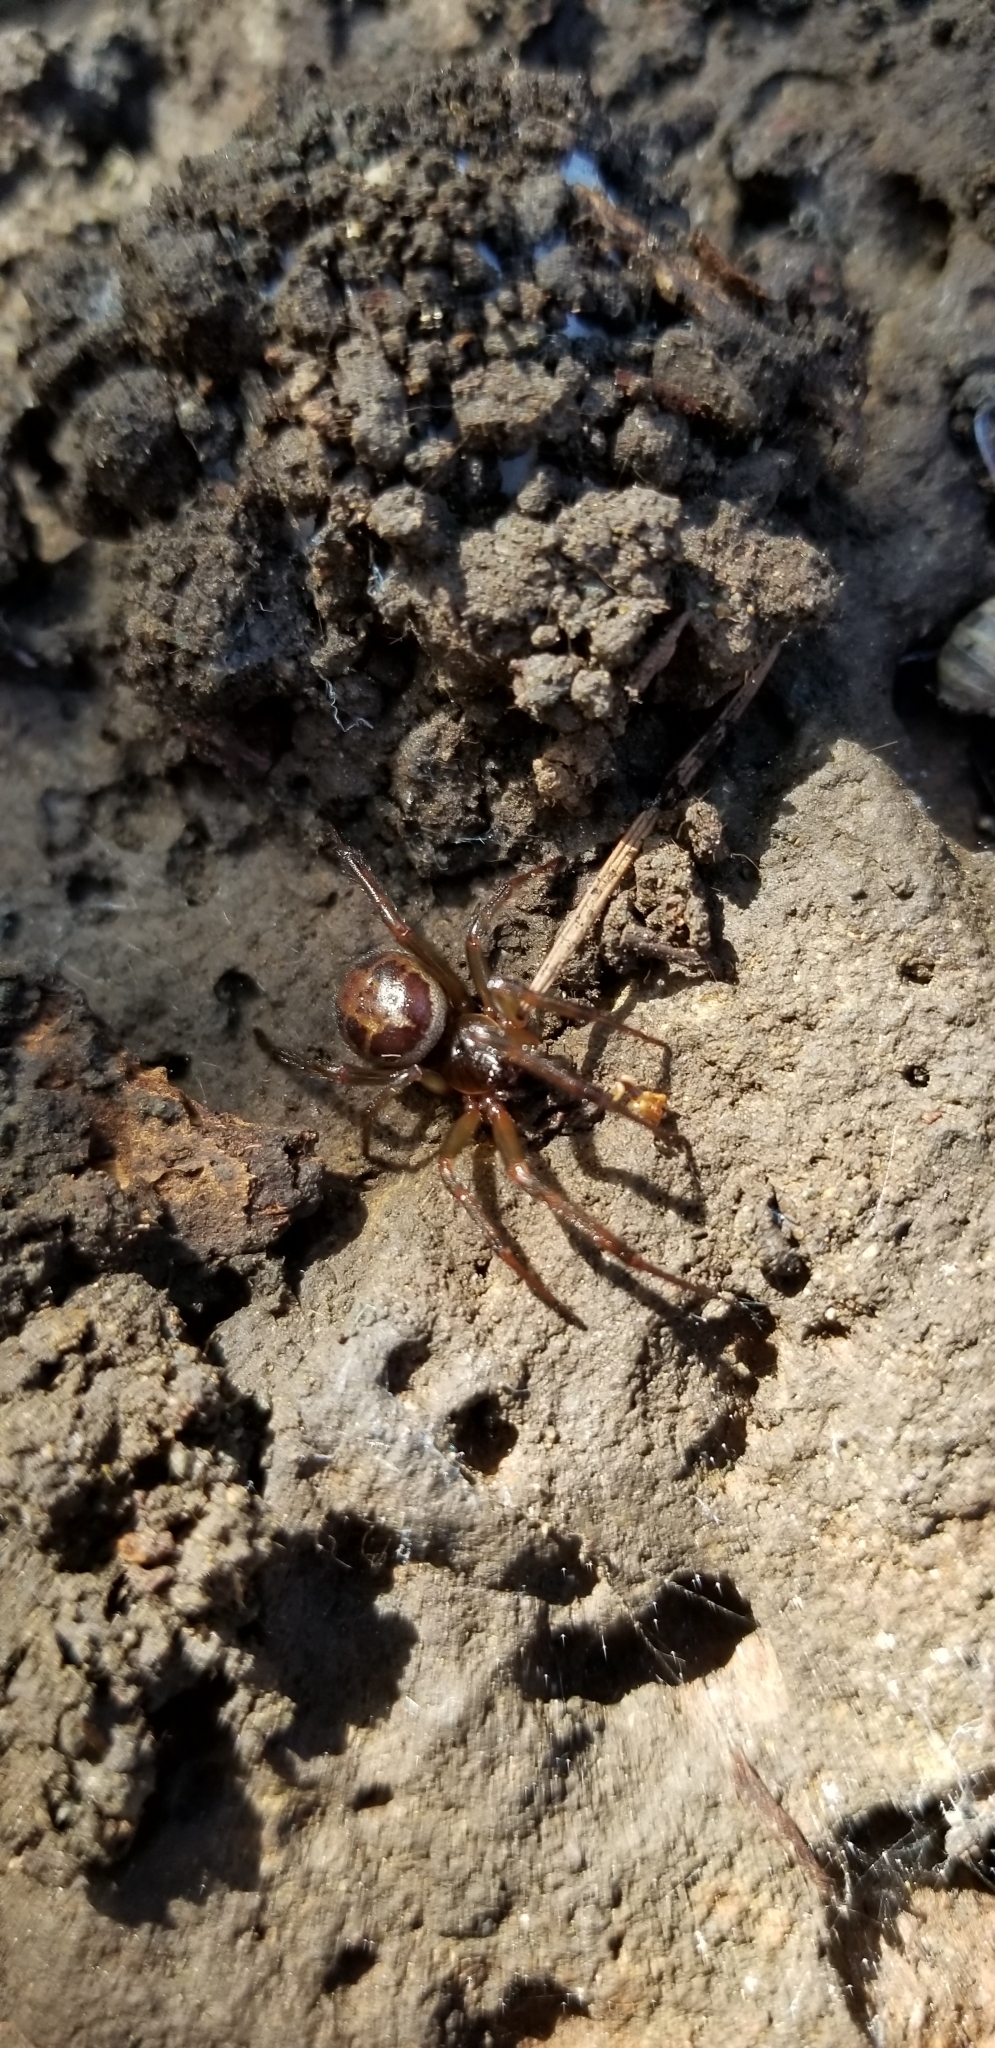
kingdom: Animalia
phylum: Arthropoda
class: Arachnida
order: Araneae
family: Theridiidae
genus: Steatoda
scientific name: Steatoda nobilis
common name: Cobweb weaver
